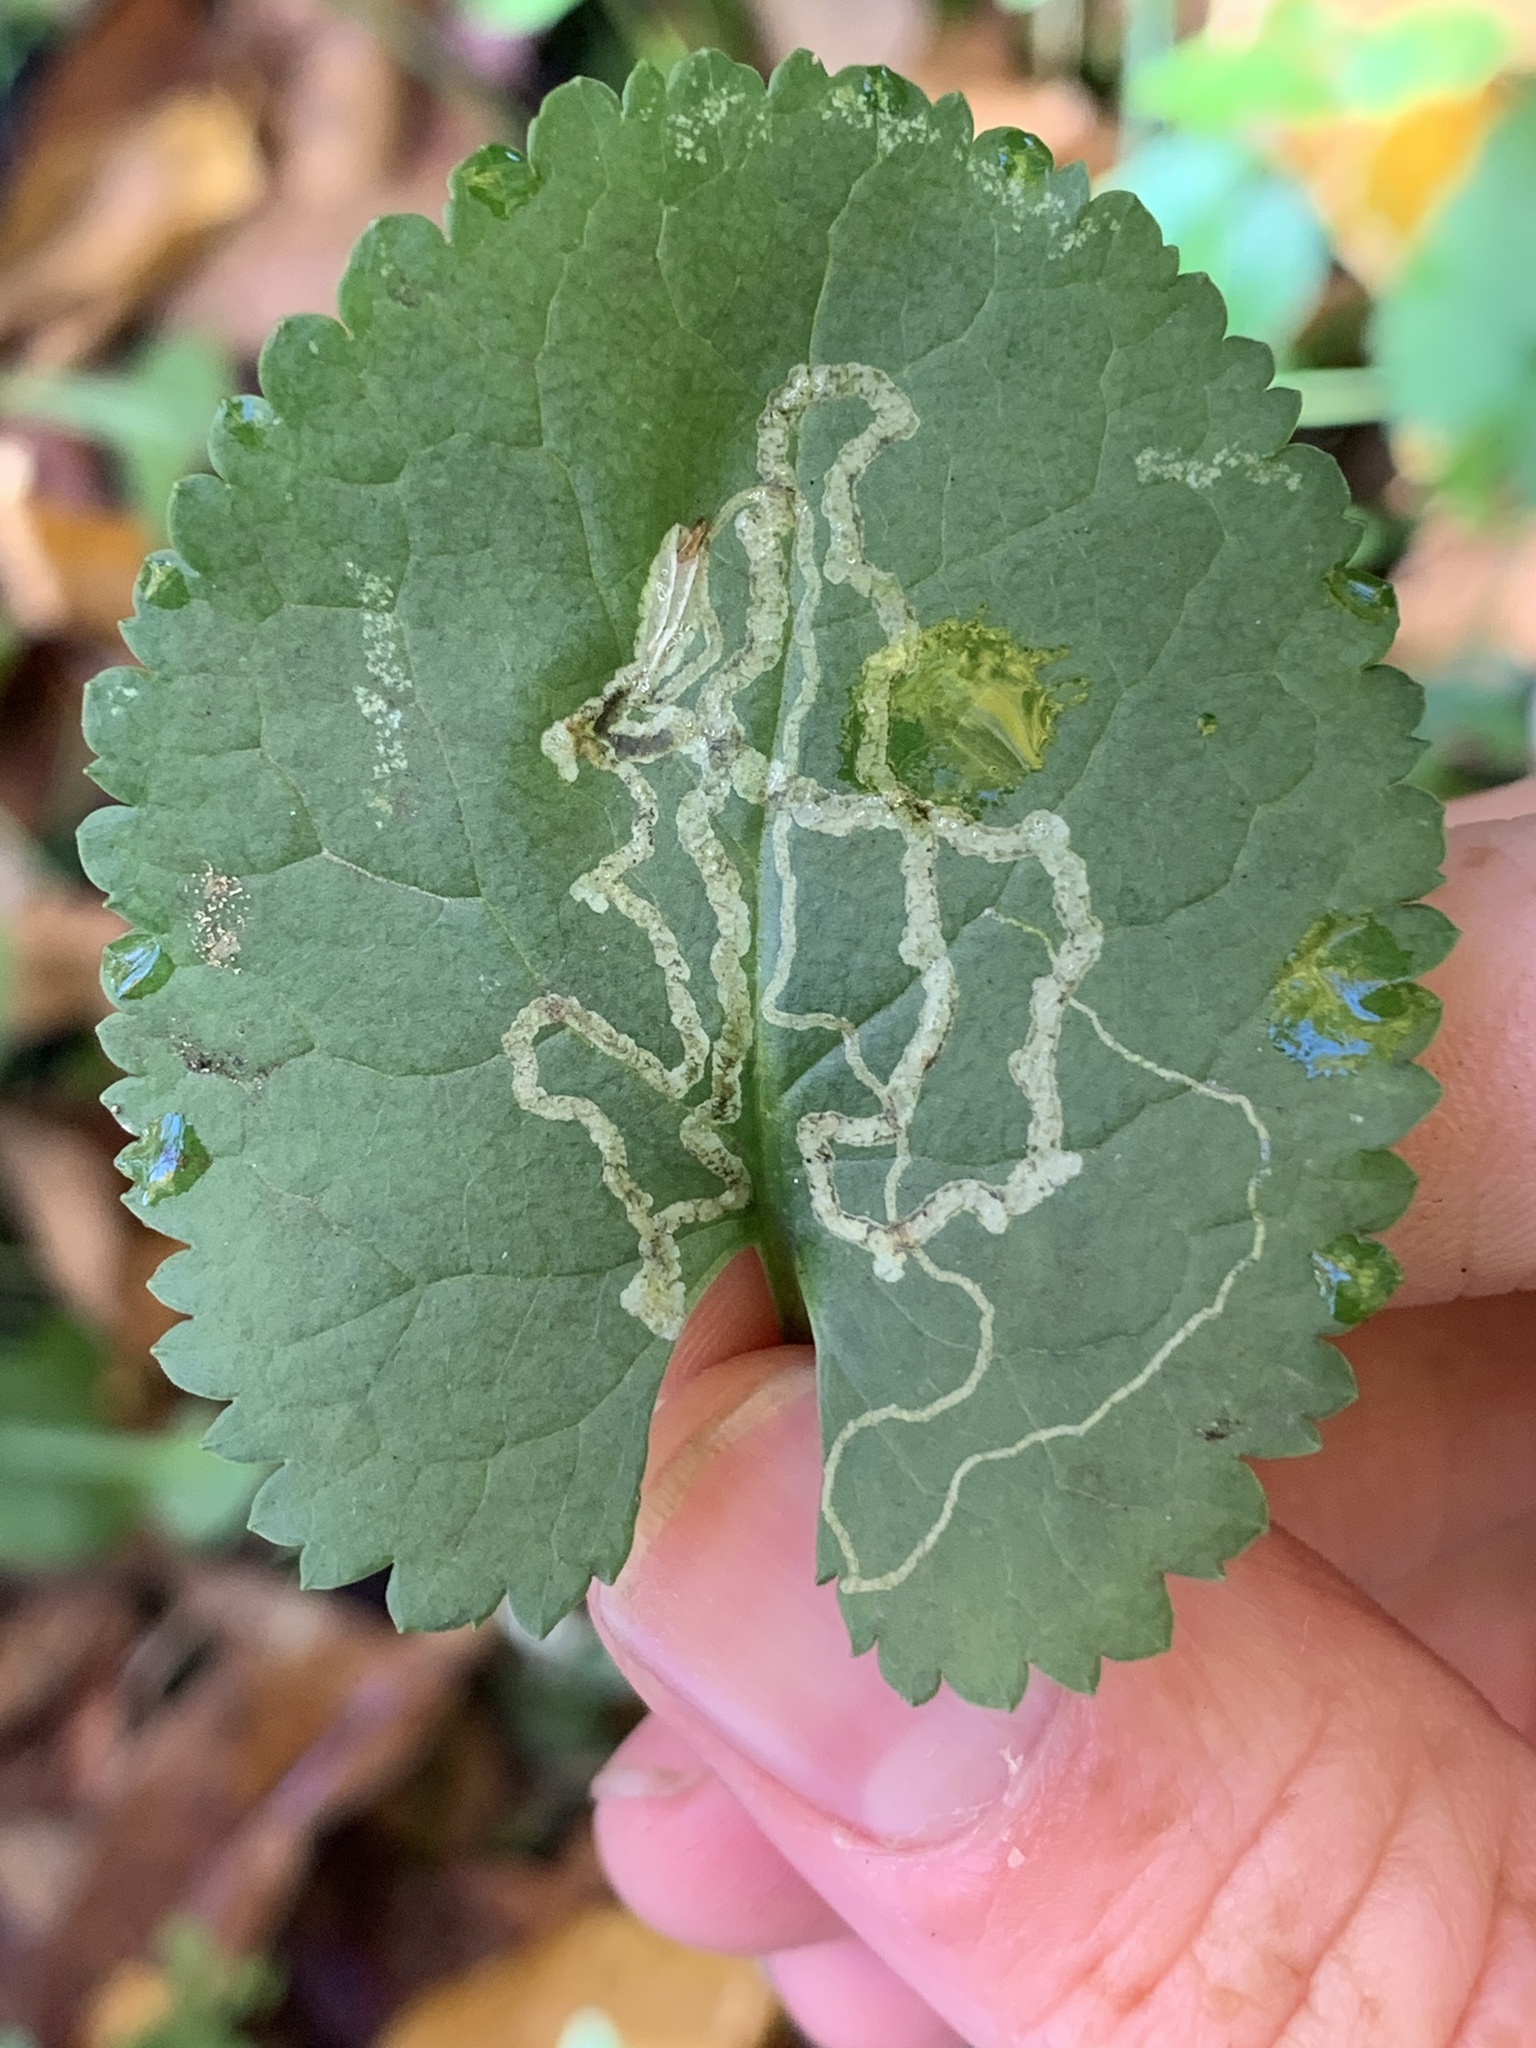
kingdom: Animalia
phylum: Arthropoda
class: Insecta
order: Lepidoptera
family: Gracillariidae
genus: Phyllocnistis
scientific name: Phyllocnistis insignis
